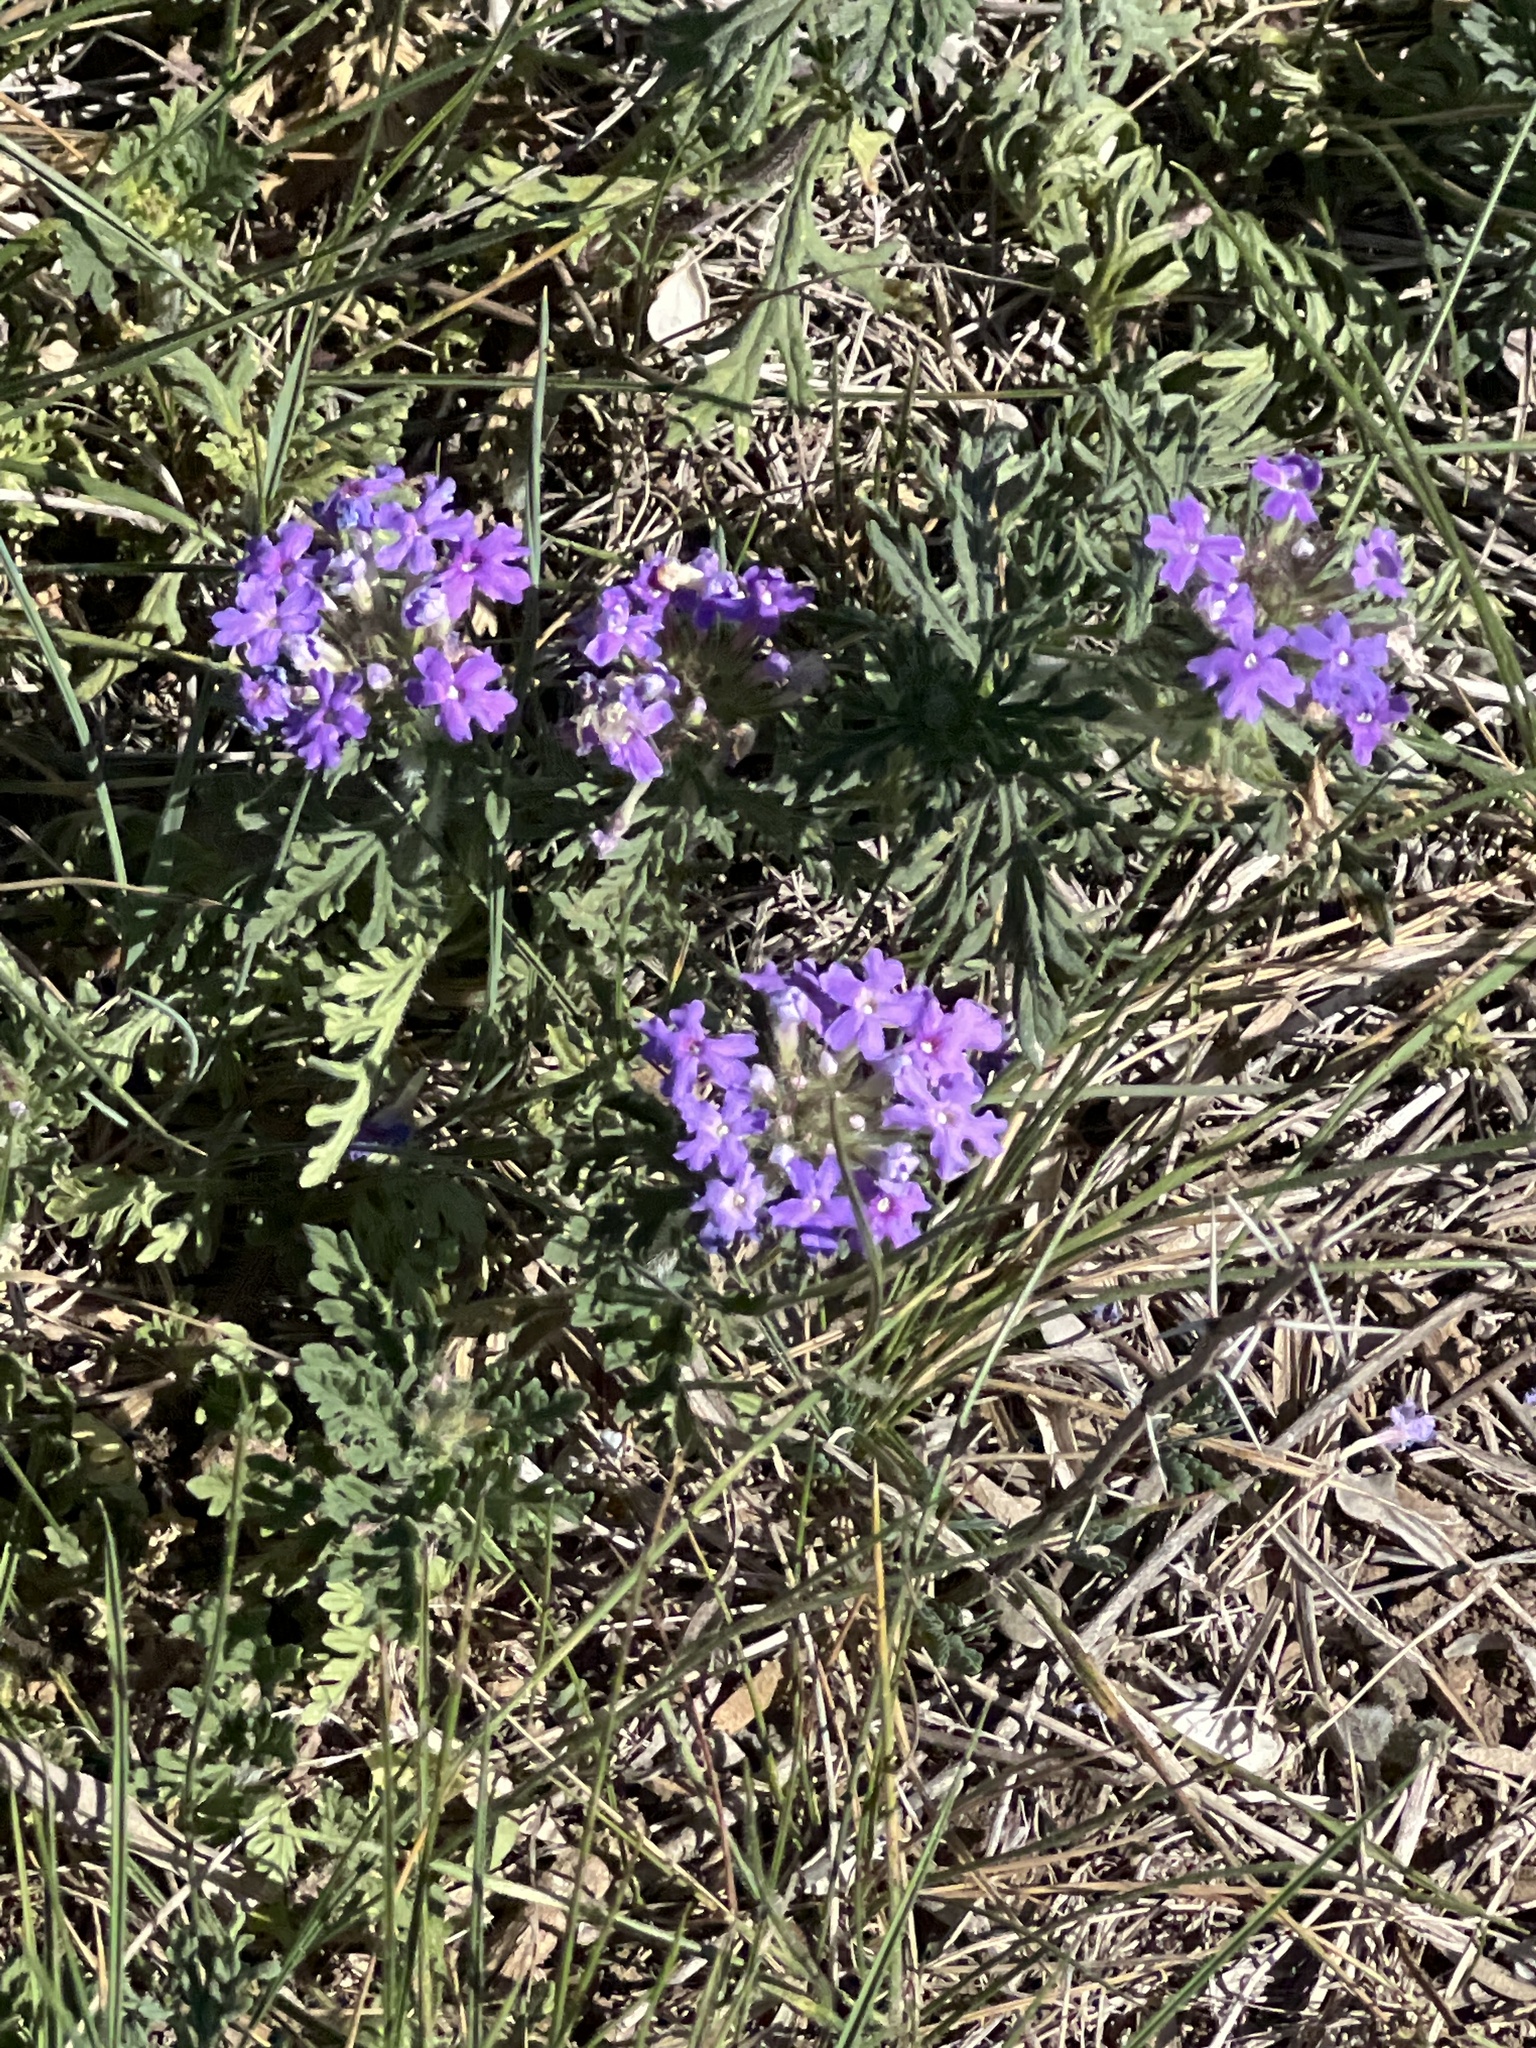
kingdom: Plantae
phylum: Tracheophyta
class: Magnoliopsida
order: Lamiales
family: Verbenaceae
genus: Verbena
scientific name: Verbena bipinnatifida
